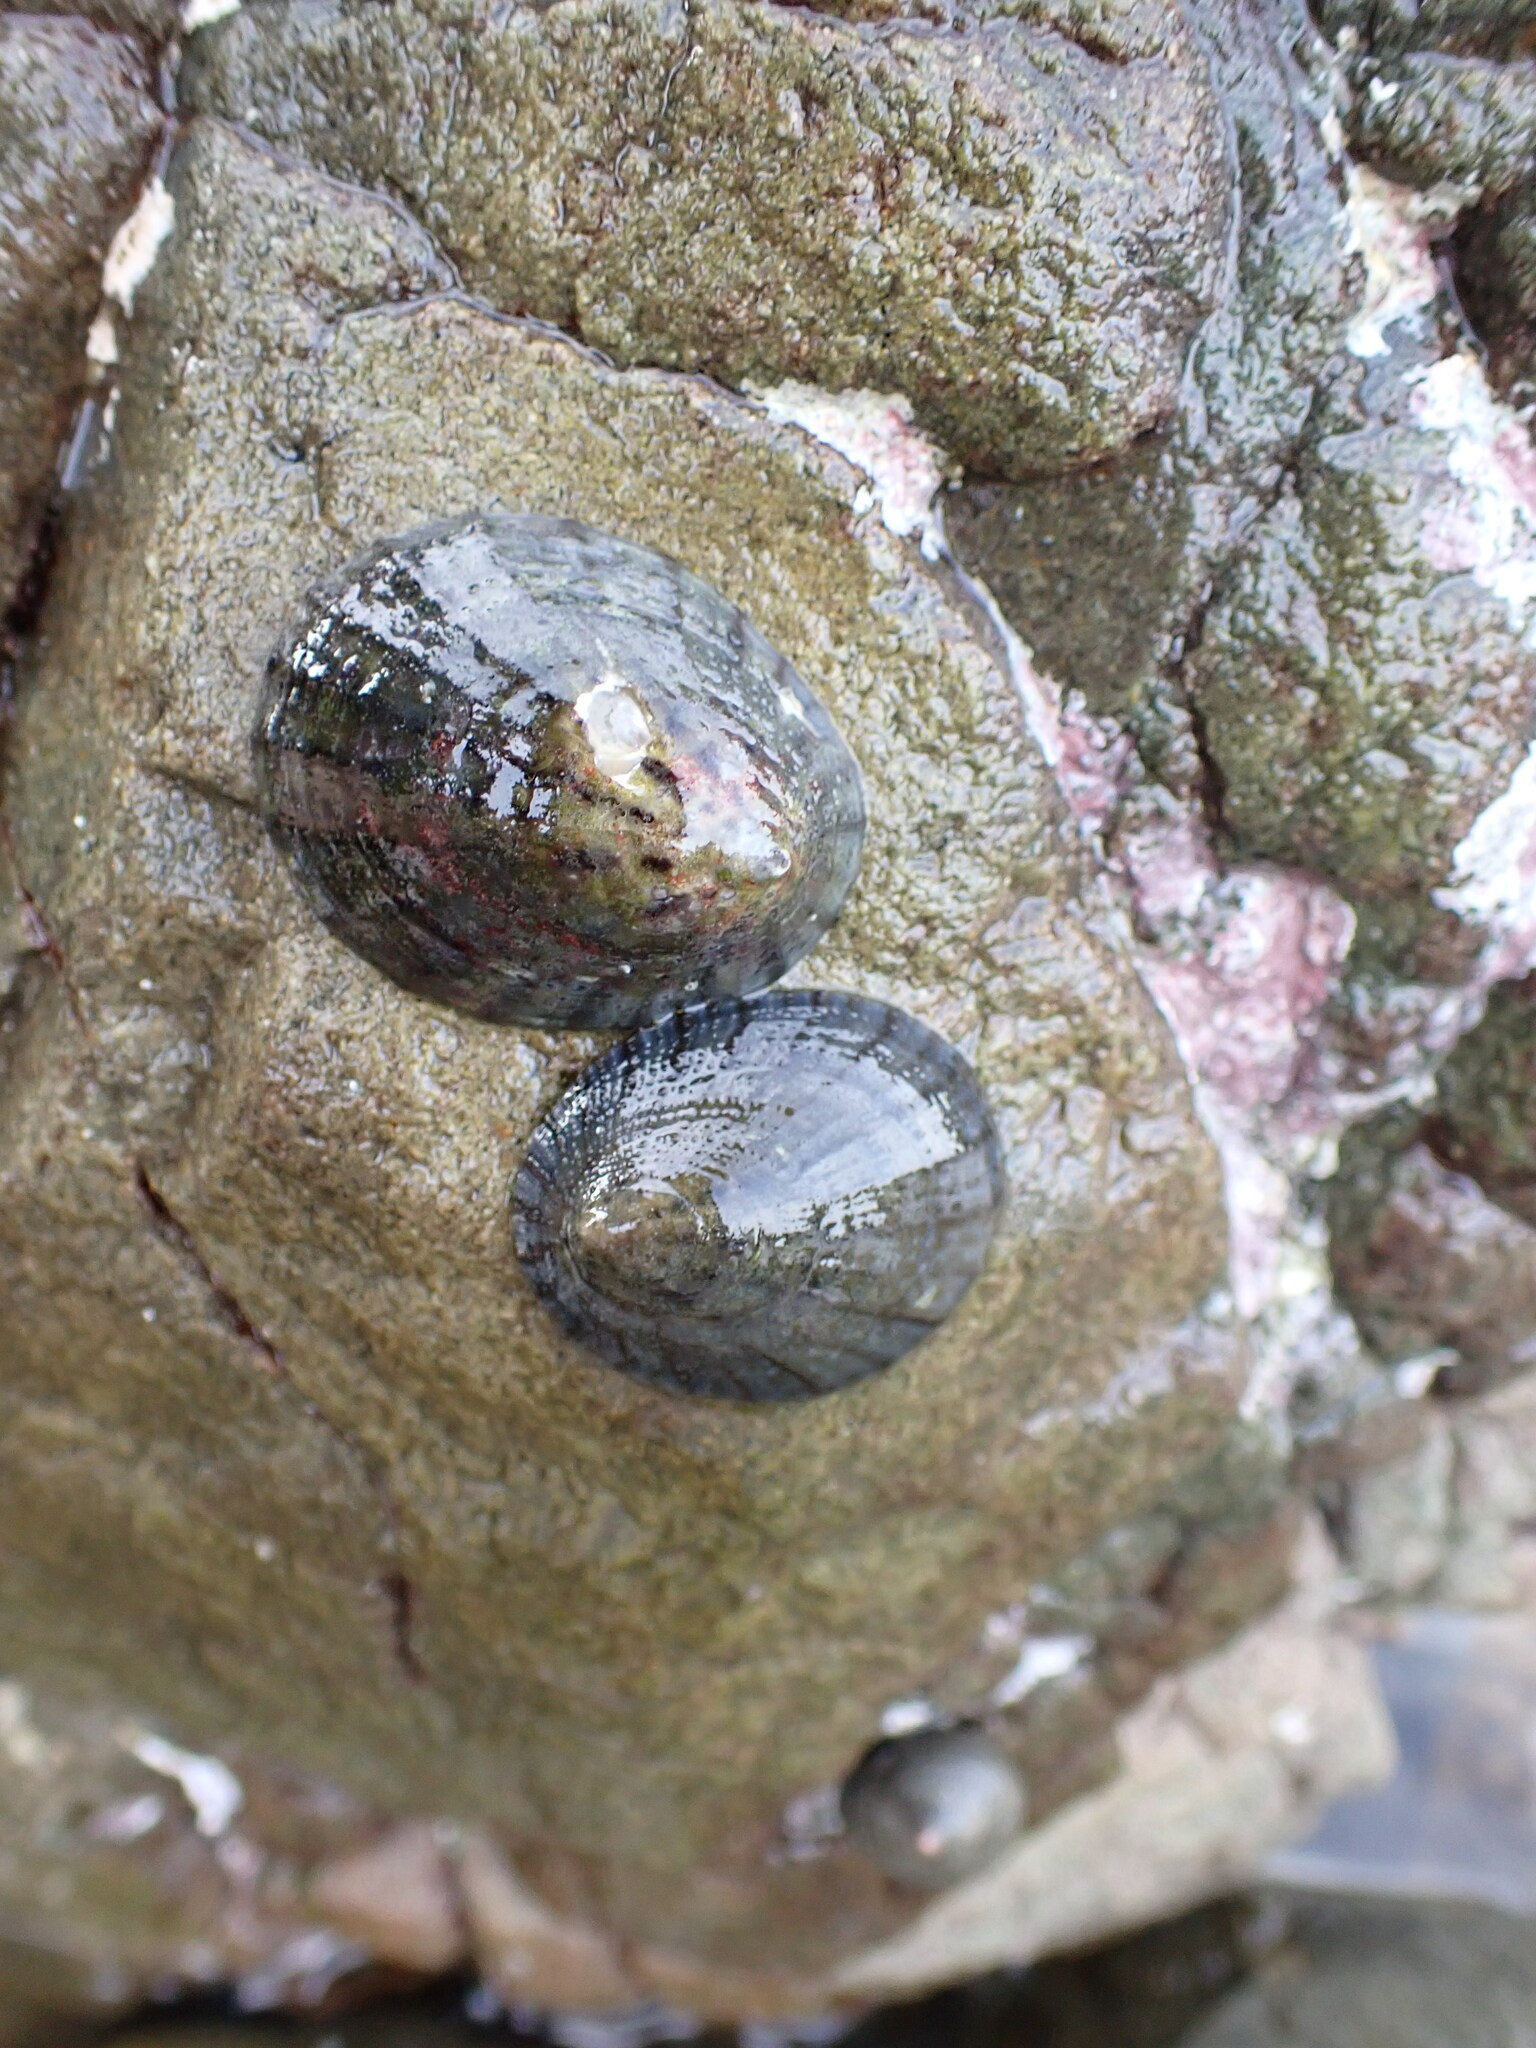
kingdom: Animalia
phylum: Mollusca
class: Gastropoda
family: Nacellidae
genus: Cellana
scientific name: Cellana radians
